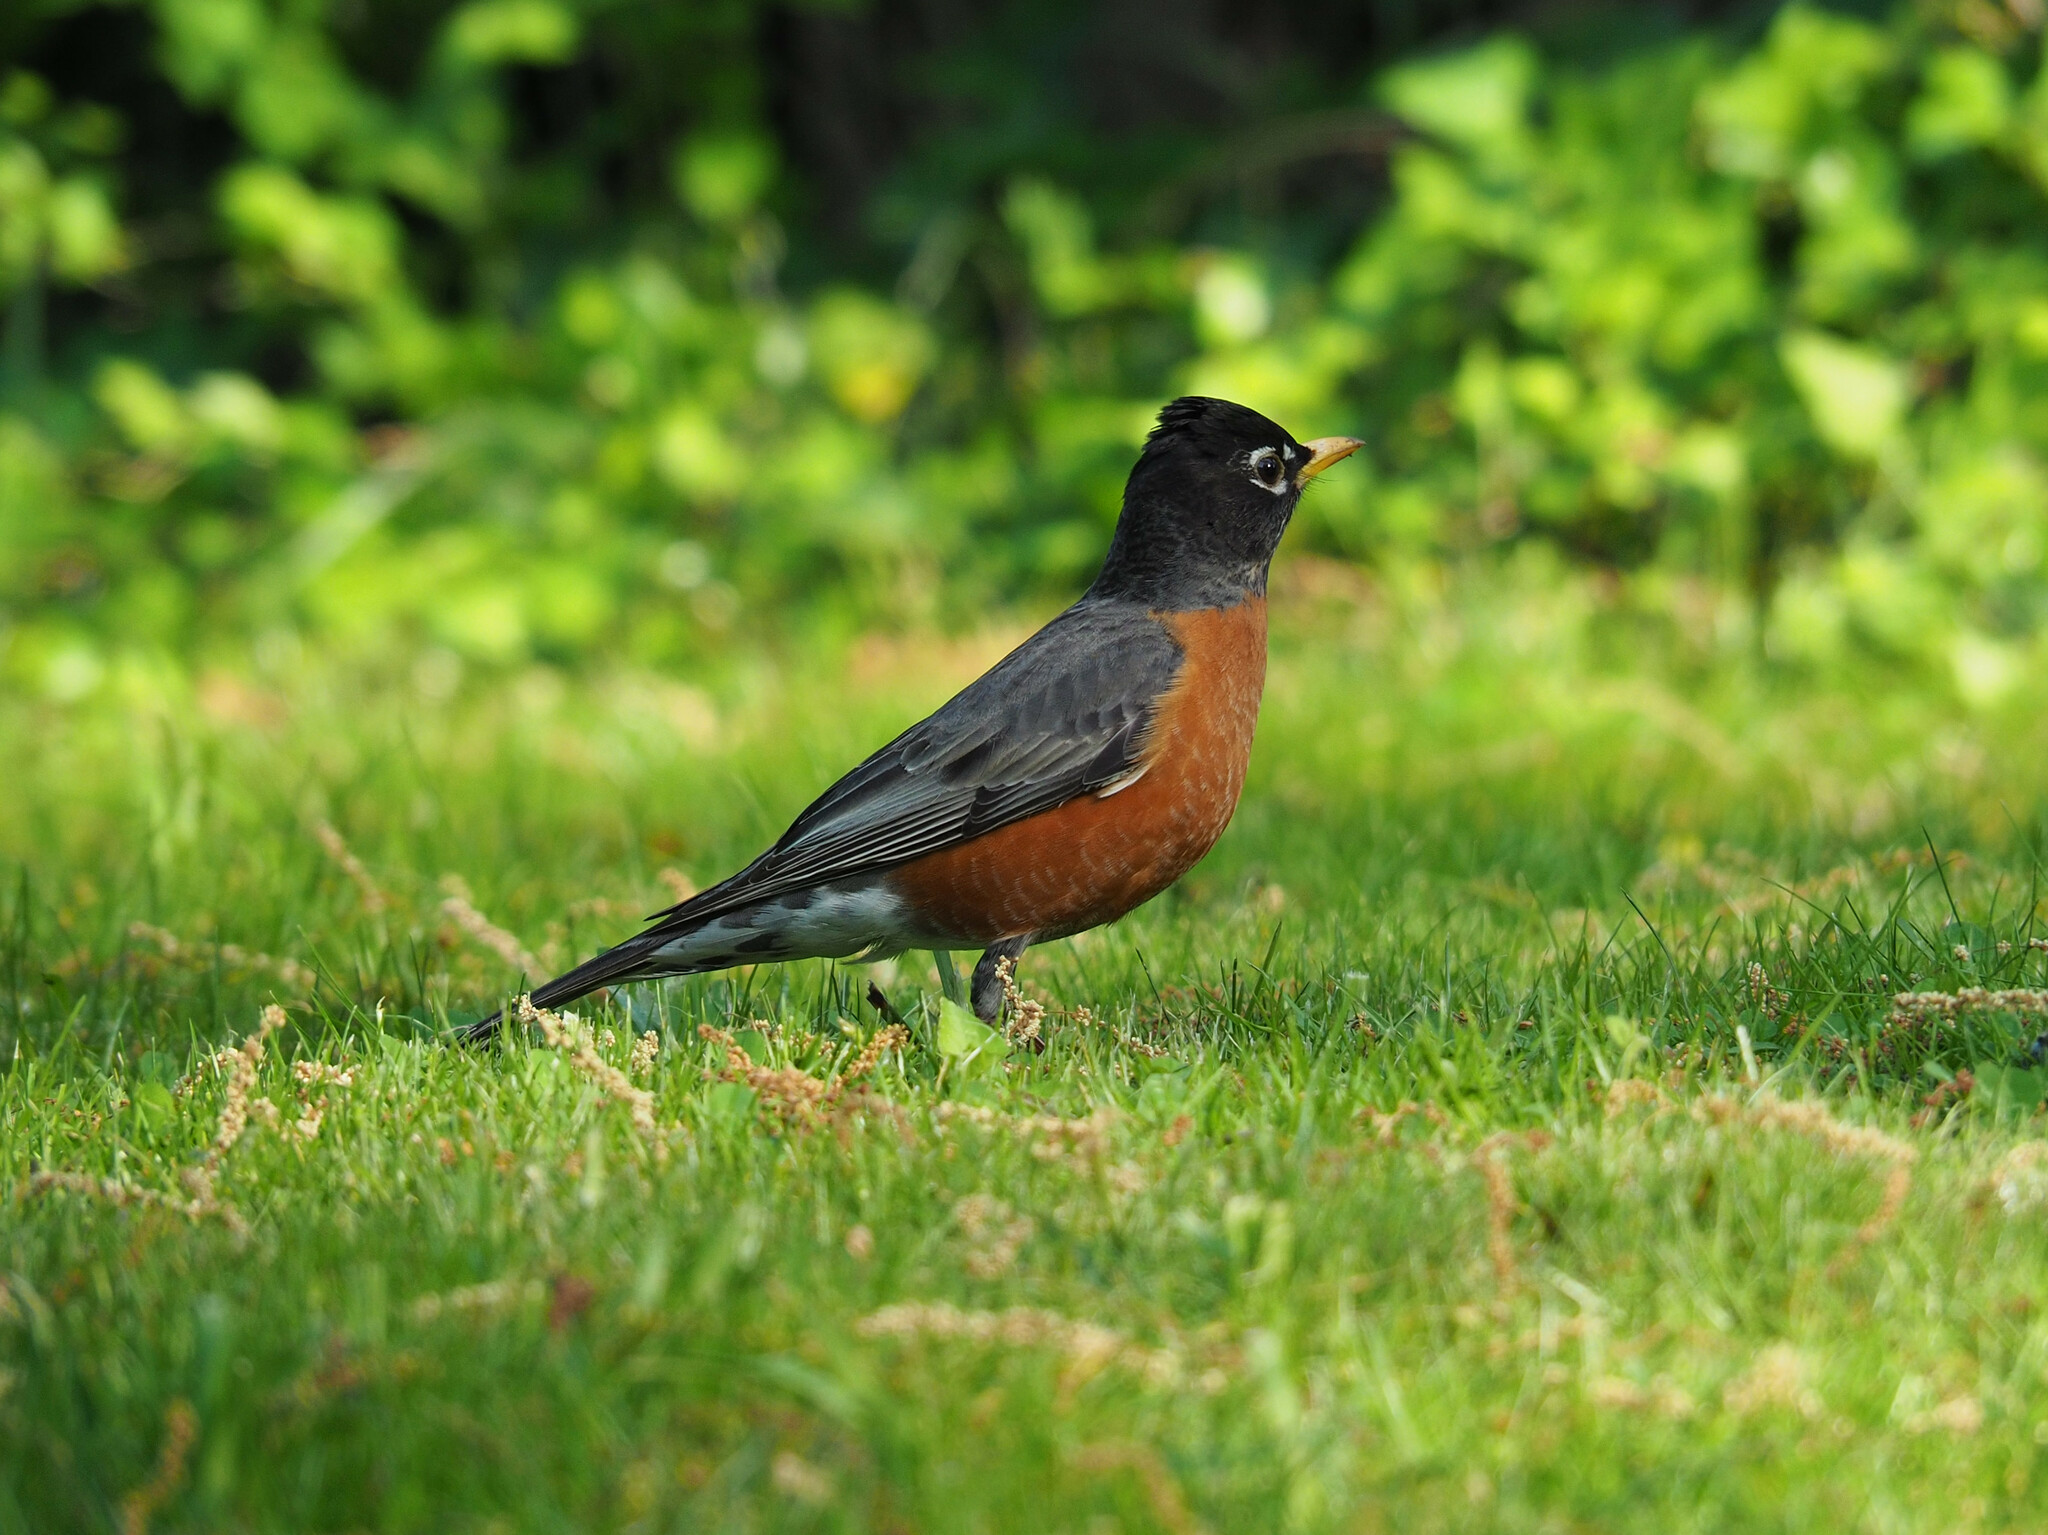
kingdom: Animalia
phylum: Chordata
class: Aves
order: Passeriformes
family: Turdidae
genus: Turdus
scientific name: Turdus migratorius
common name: American robin
